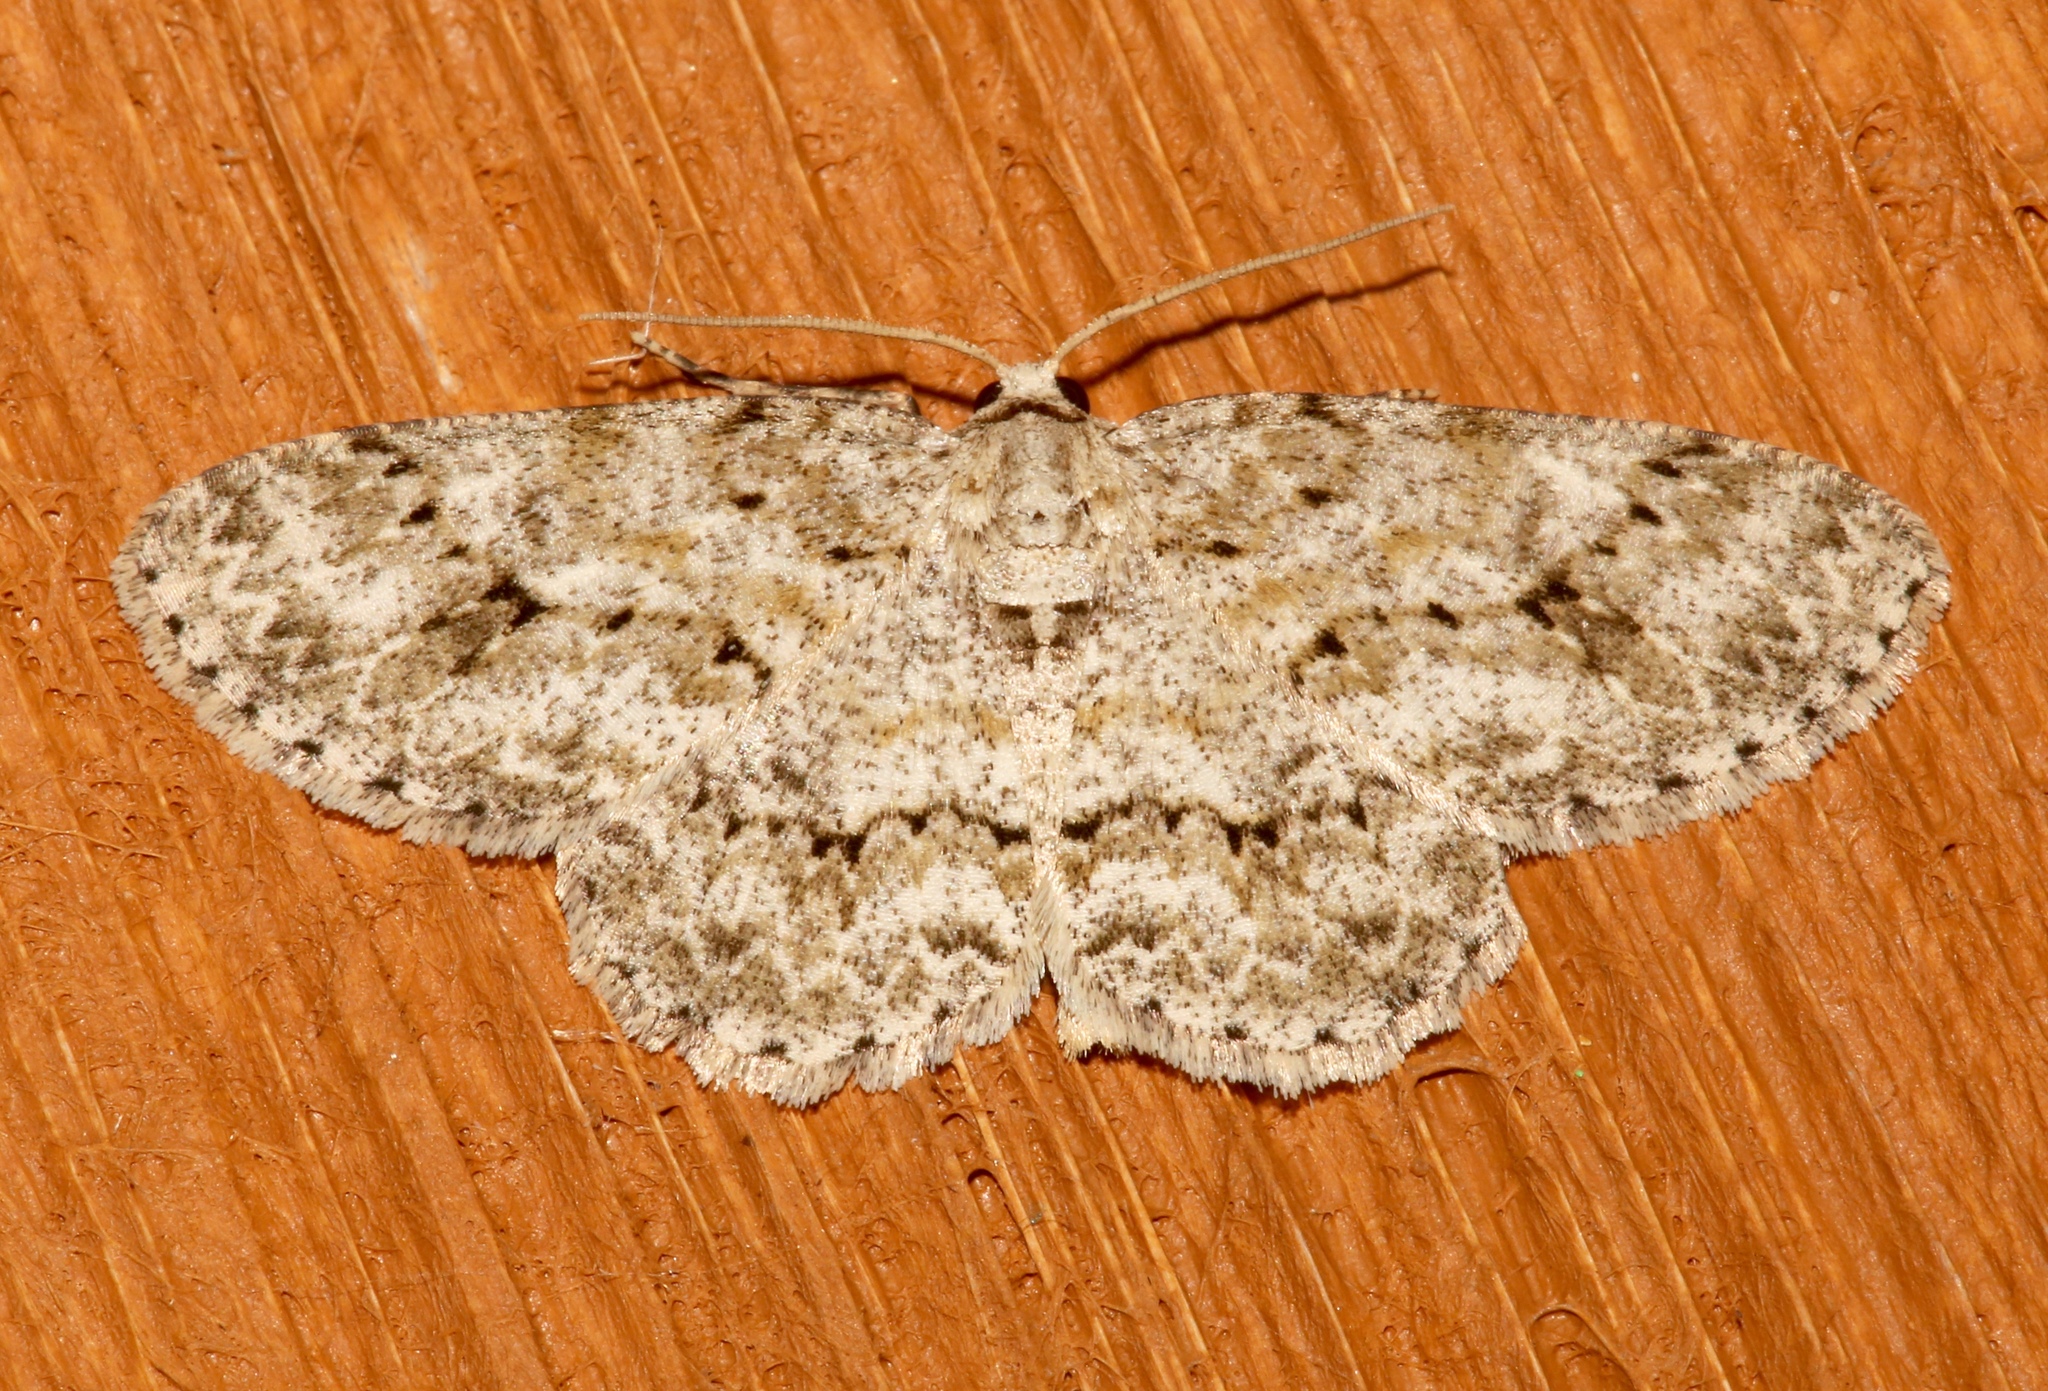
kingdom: Animalia
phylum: Arthropoda
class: Insecta
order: Lepidoptera
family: Geometridae
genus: Ectropis
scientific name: Ectropis crepuscularia
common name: Engrailed
